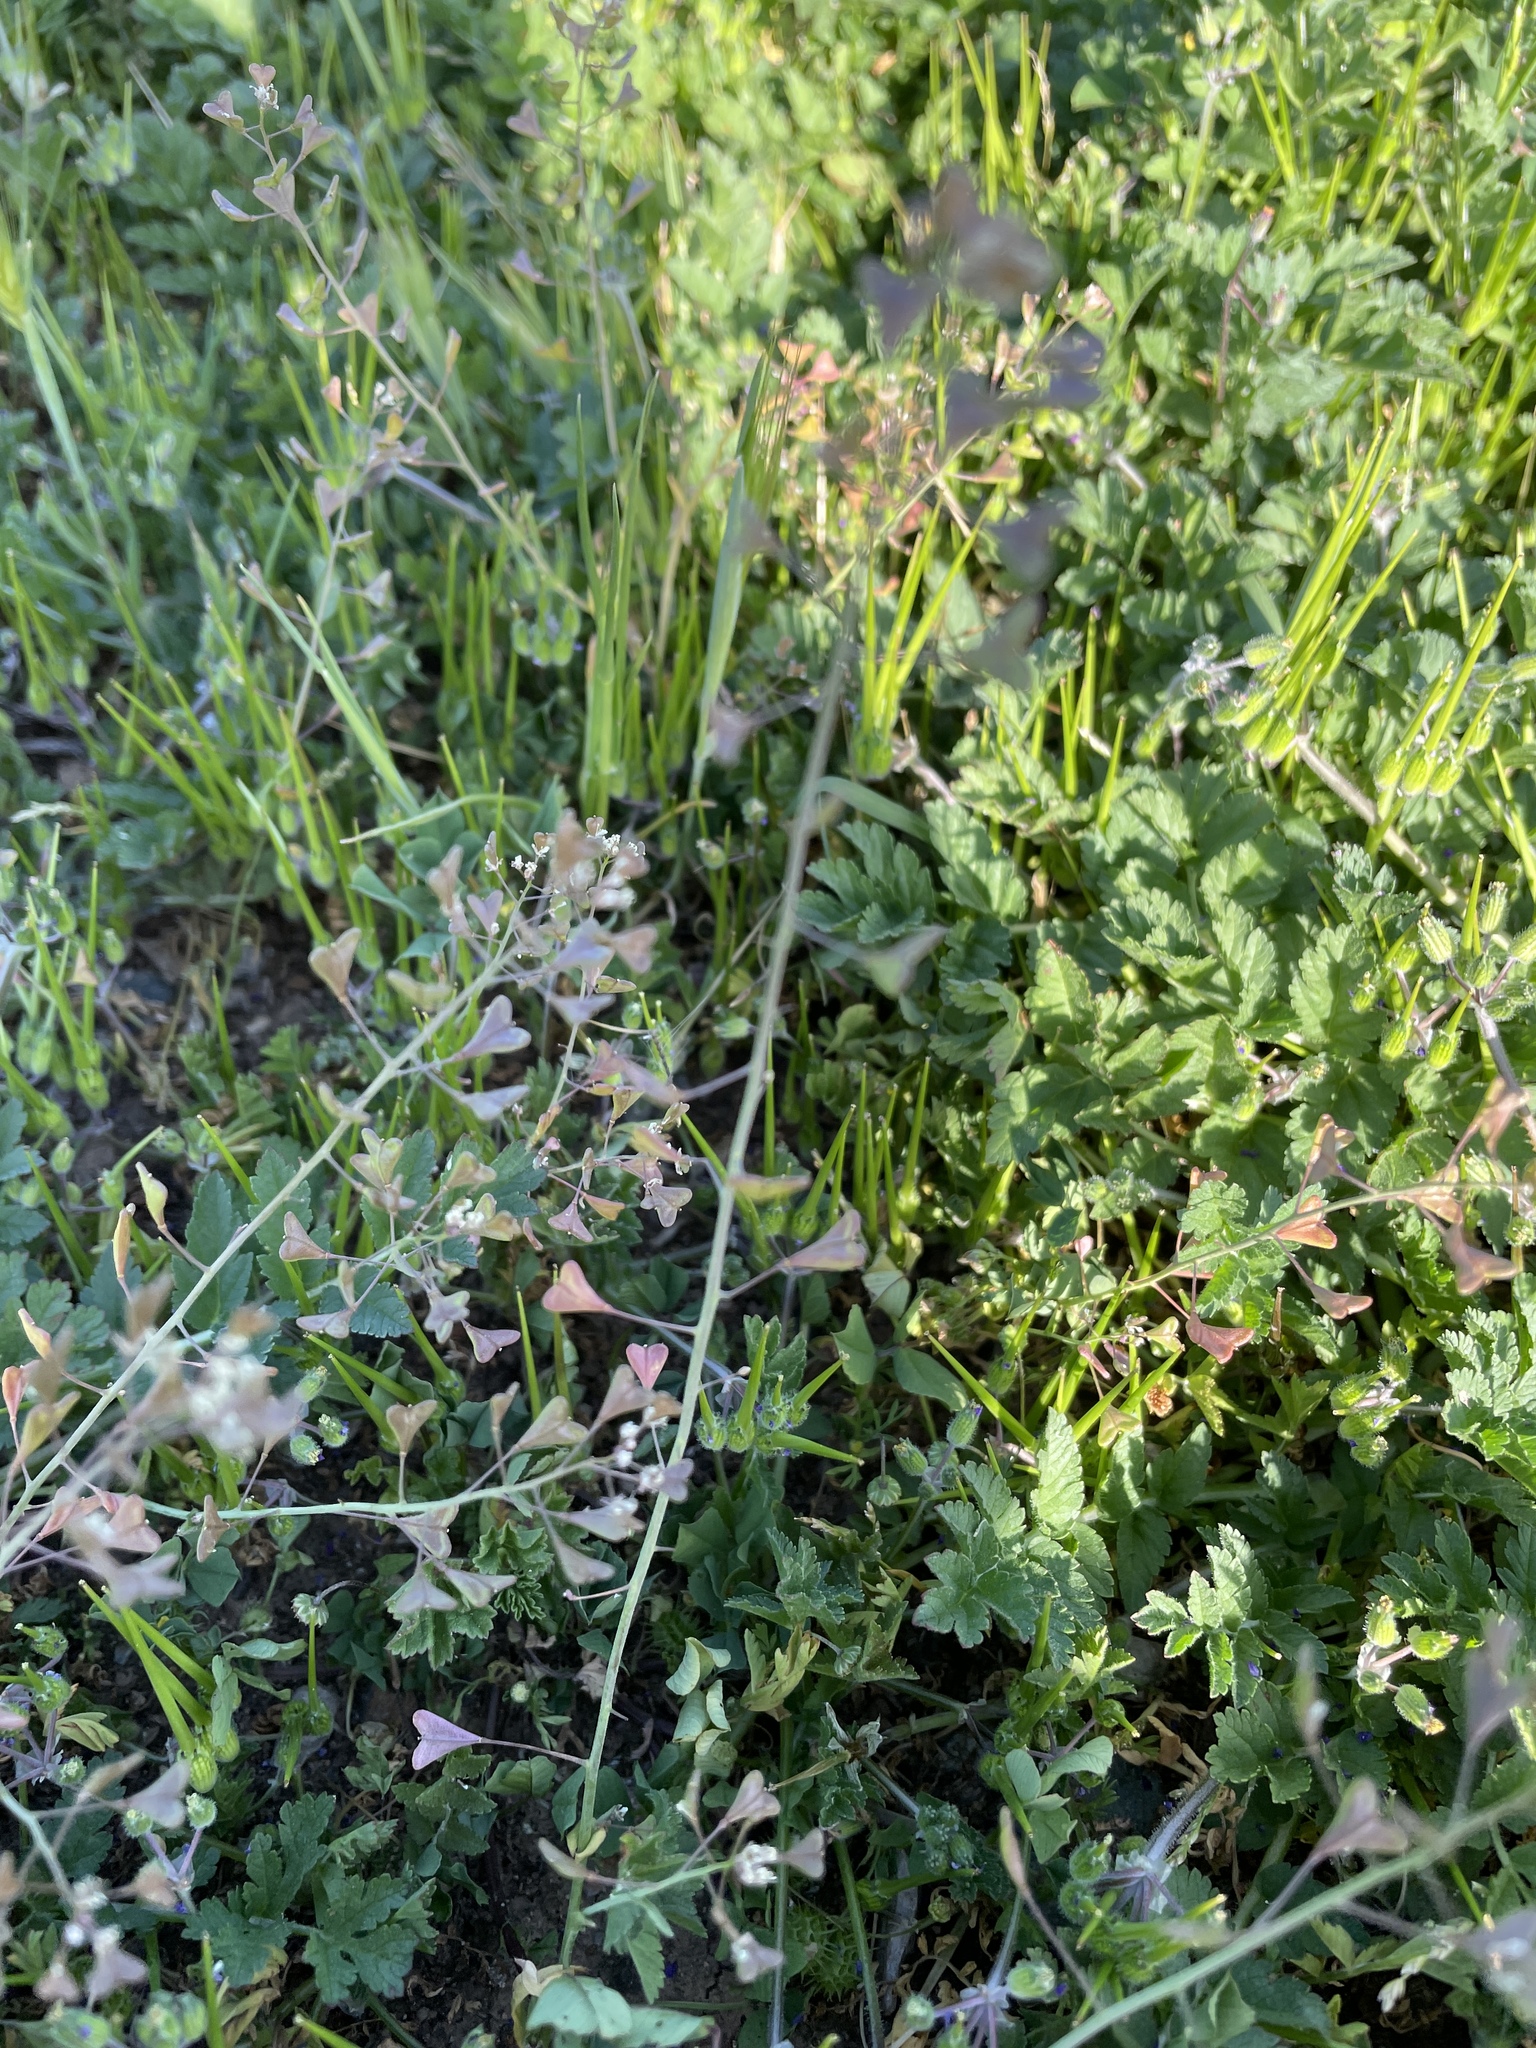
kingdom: Plantae
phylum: Tracheophyta
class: Magnoliopsida
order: Brassicales
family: Brassicaceae
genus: Capsella
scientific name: Capsella bursa-pastoris
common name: Shepherd's purse
